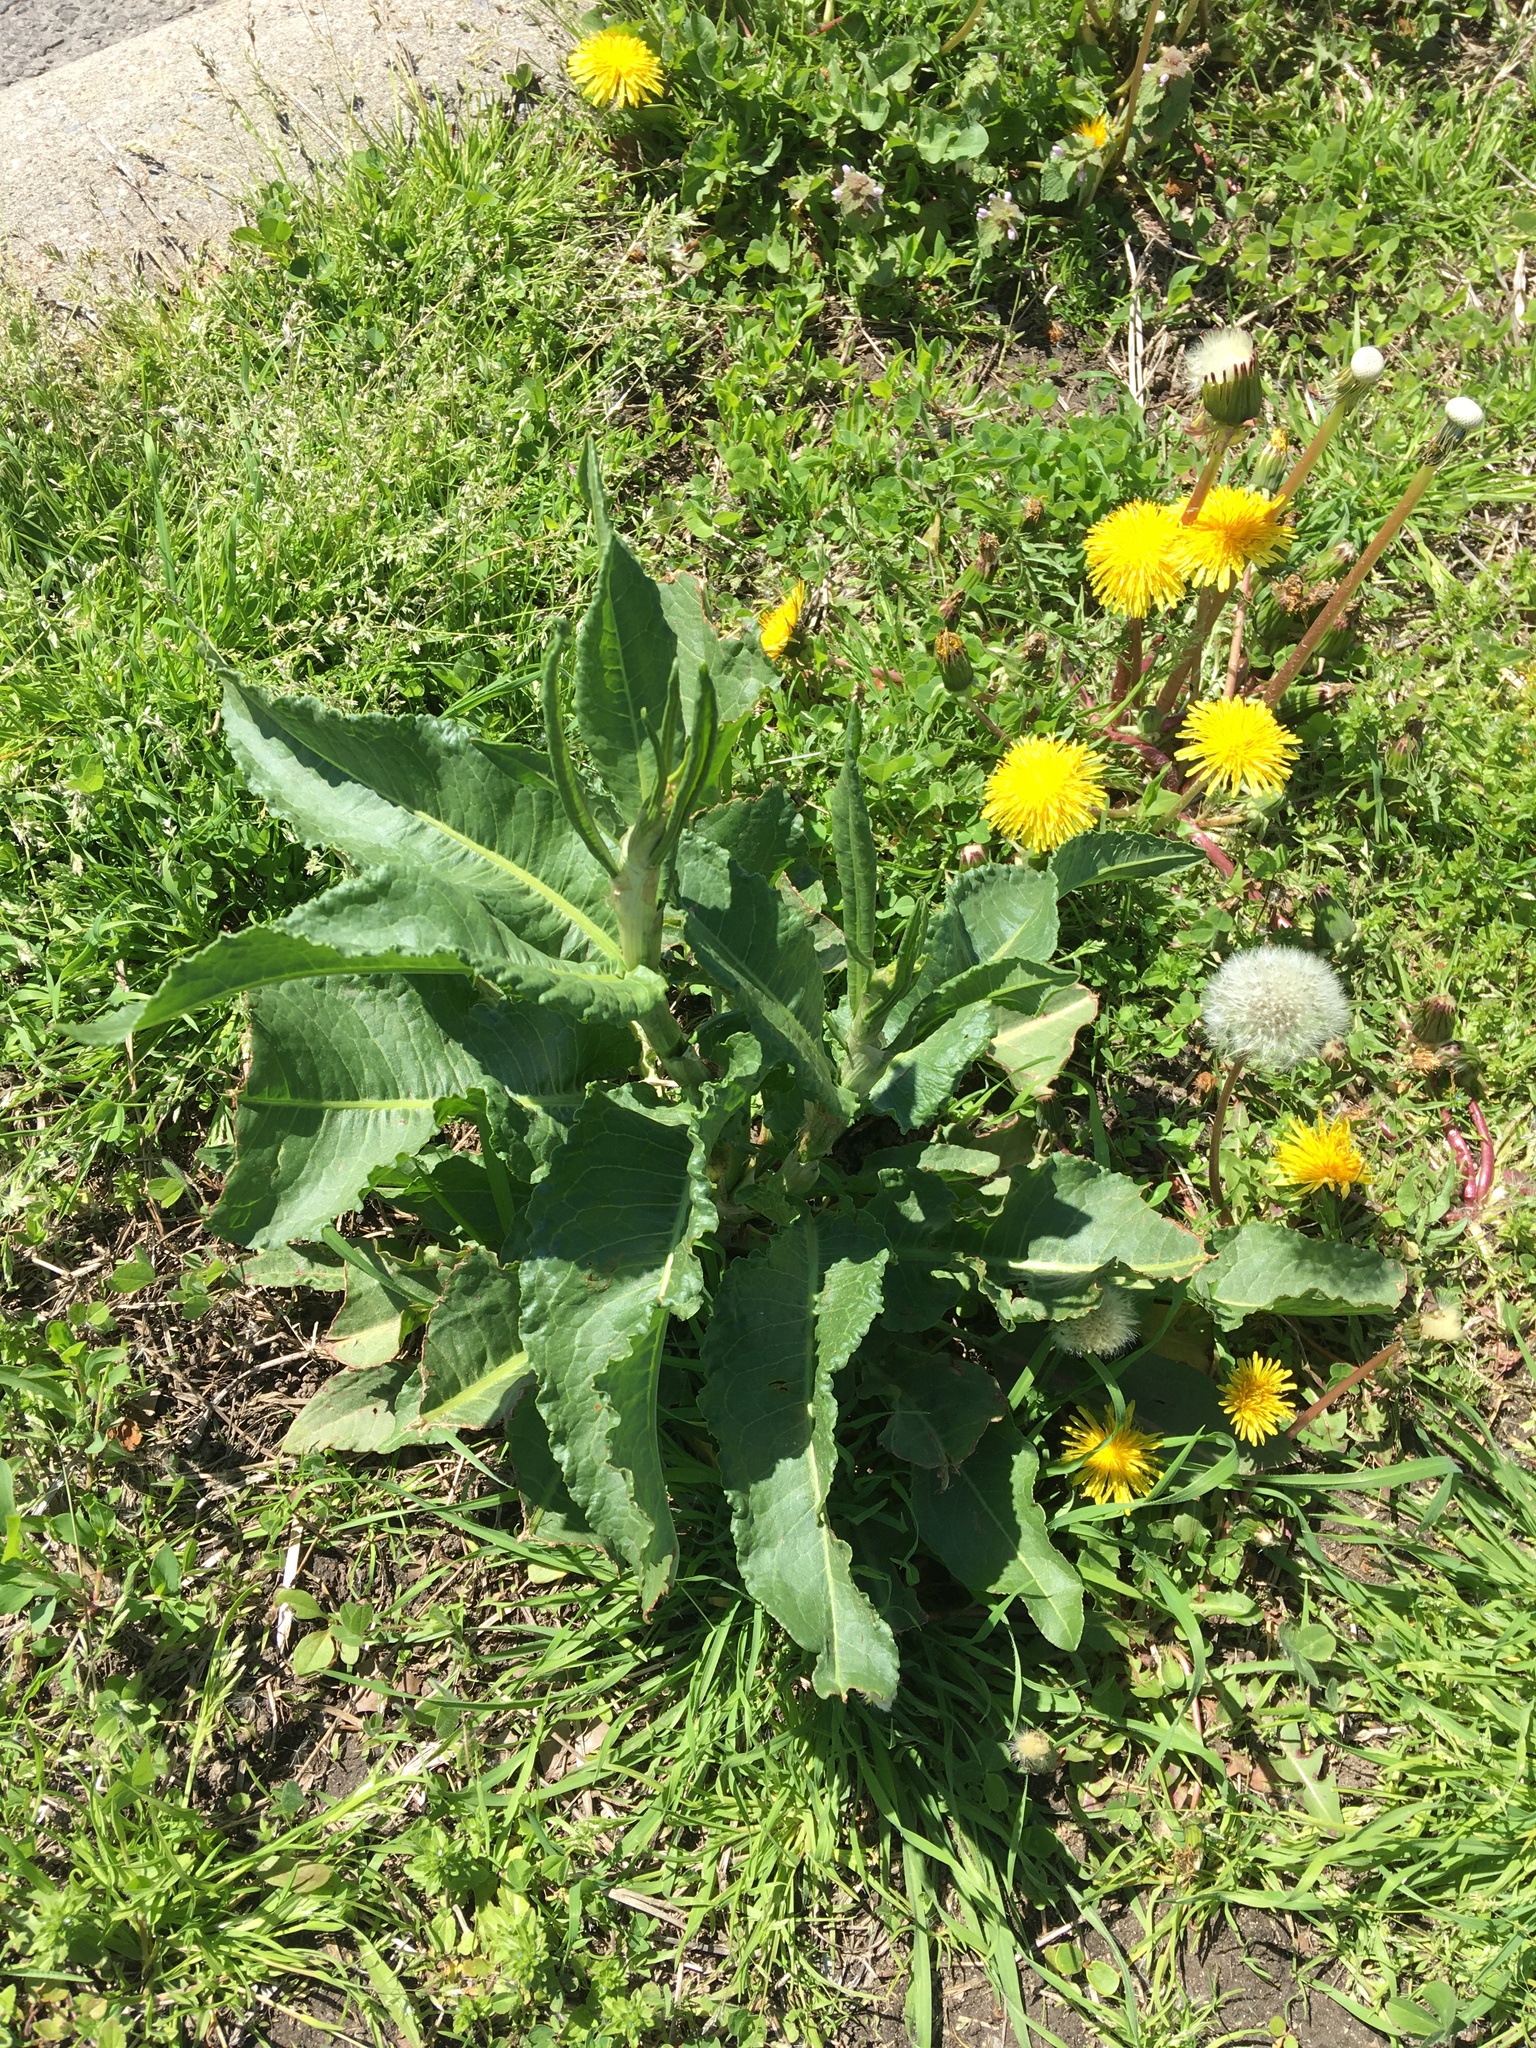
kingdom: Plantae
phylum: Tracheophyta
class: Magnoliopsida
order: Caryophyllales
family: Polygonaceae
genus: Rumex
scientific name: Rumex obtusifolius
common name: Bitter dock
